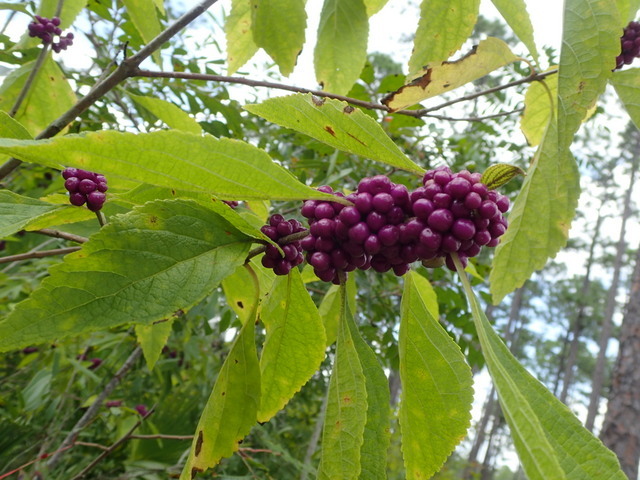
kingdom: Plantae
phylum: Tracheophyta
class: Magnoliopsida
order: Lamiales
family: Lamiaceae
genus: Callicarpa
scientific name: Callicarpa americana
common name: American beautyberry
